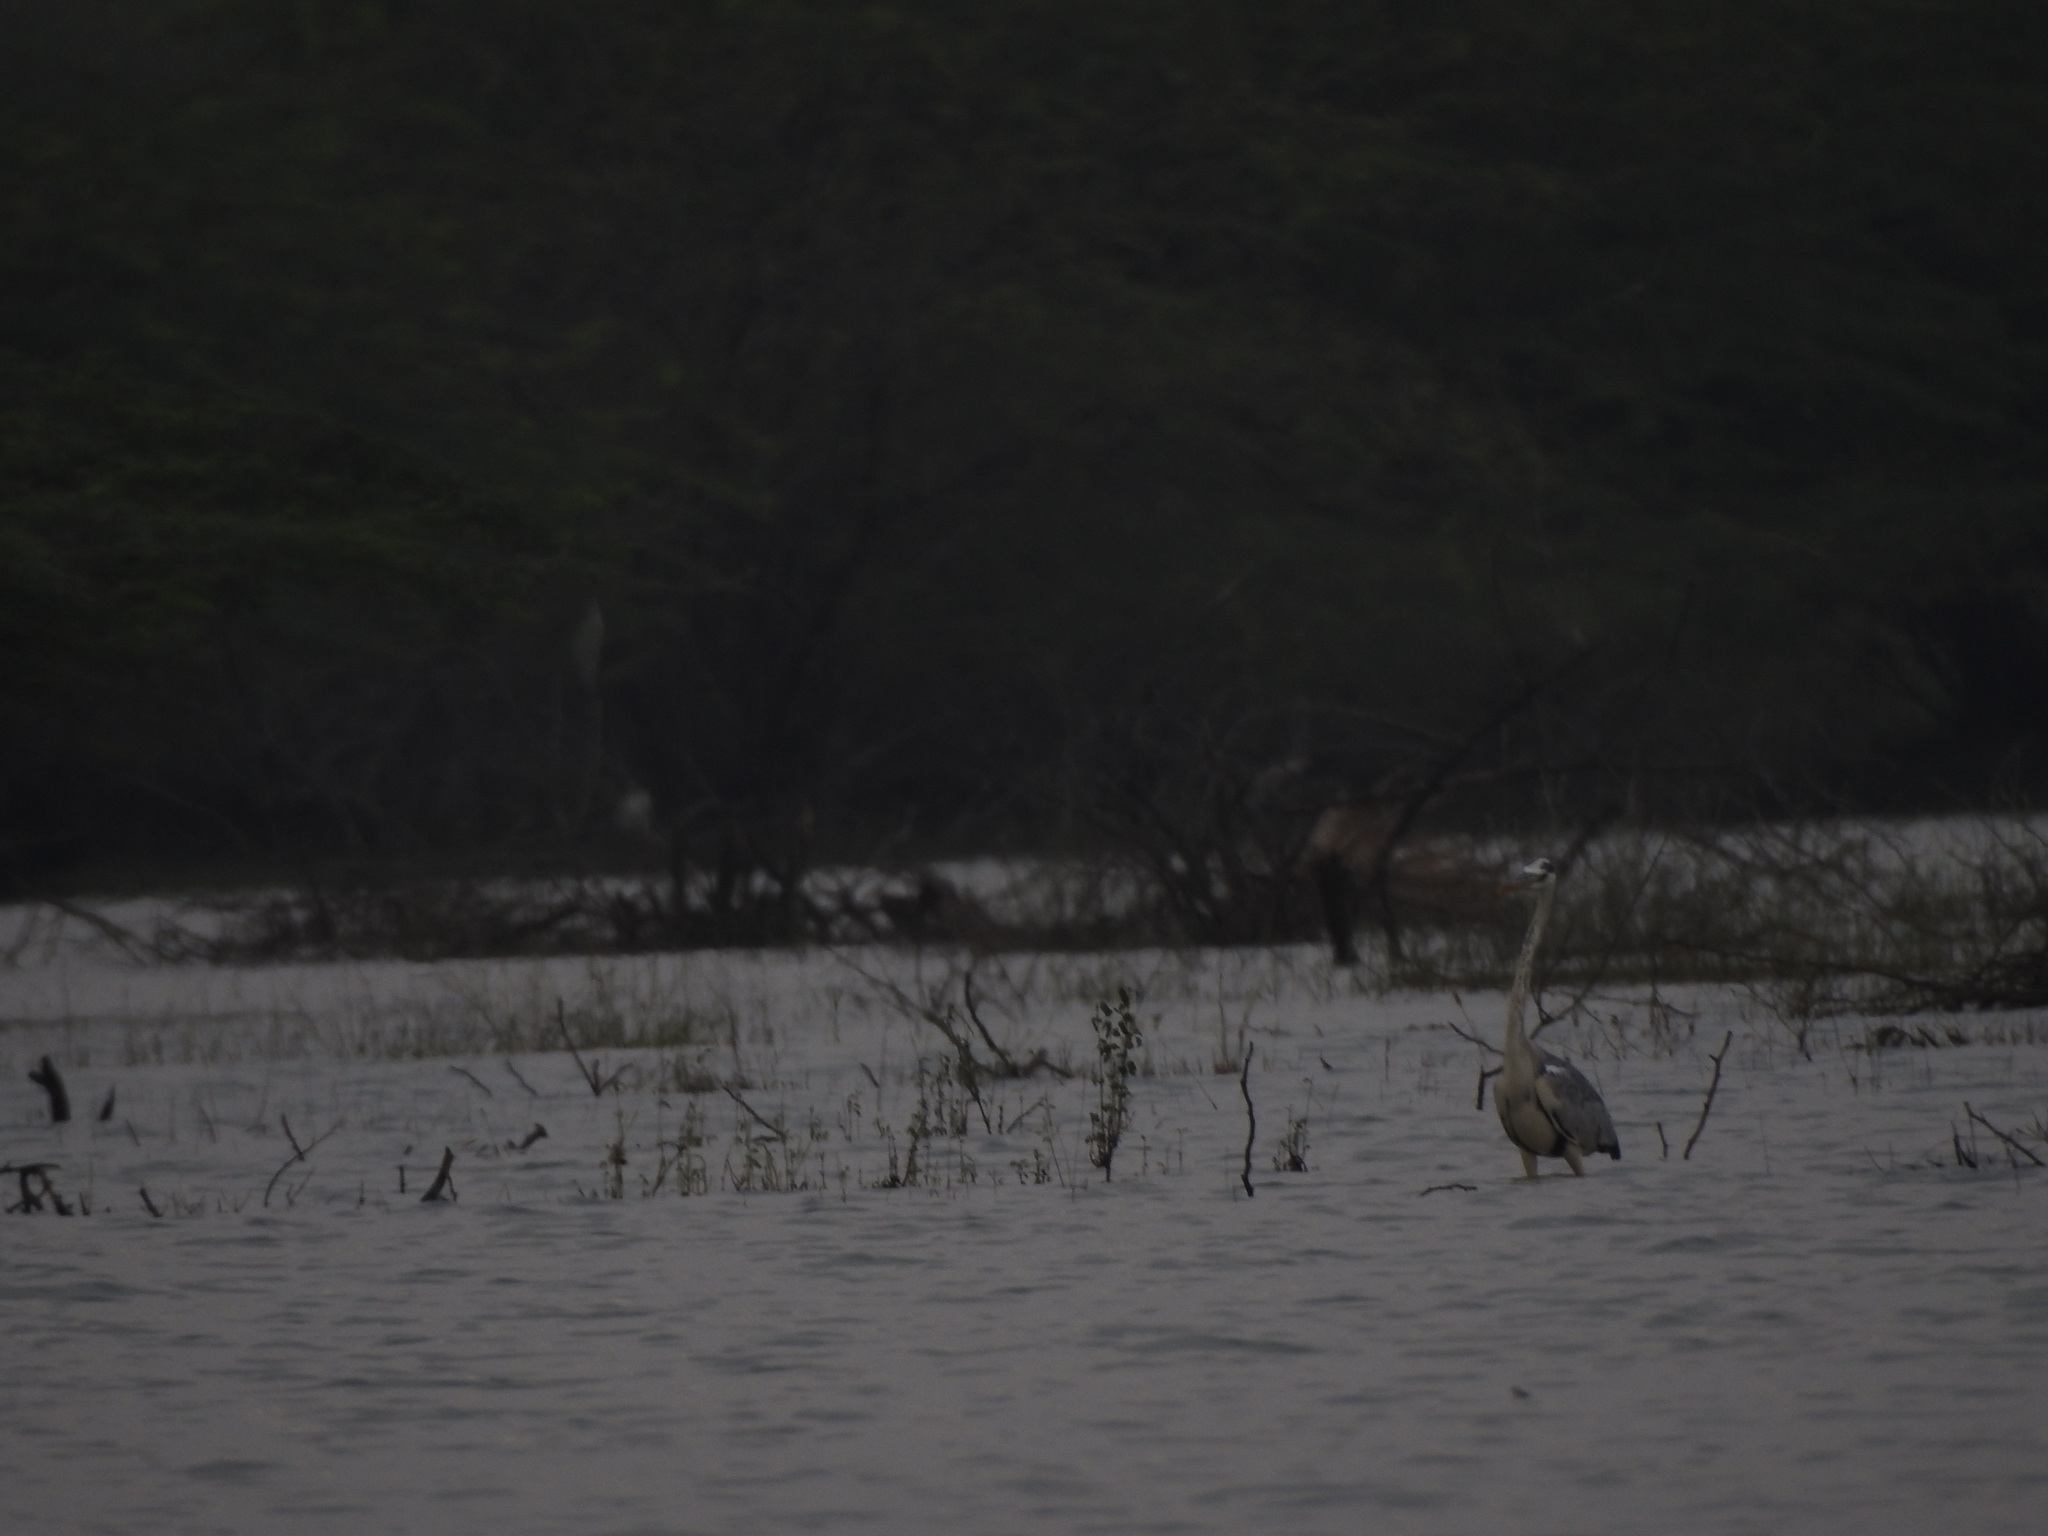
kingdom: Animalia
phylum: Chordata
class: Aves
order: Pelecaniformes
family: Ardeidae
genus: Ardea
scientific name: Ardea cinerea
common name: Grey heron
